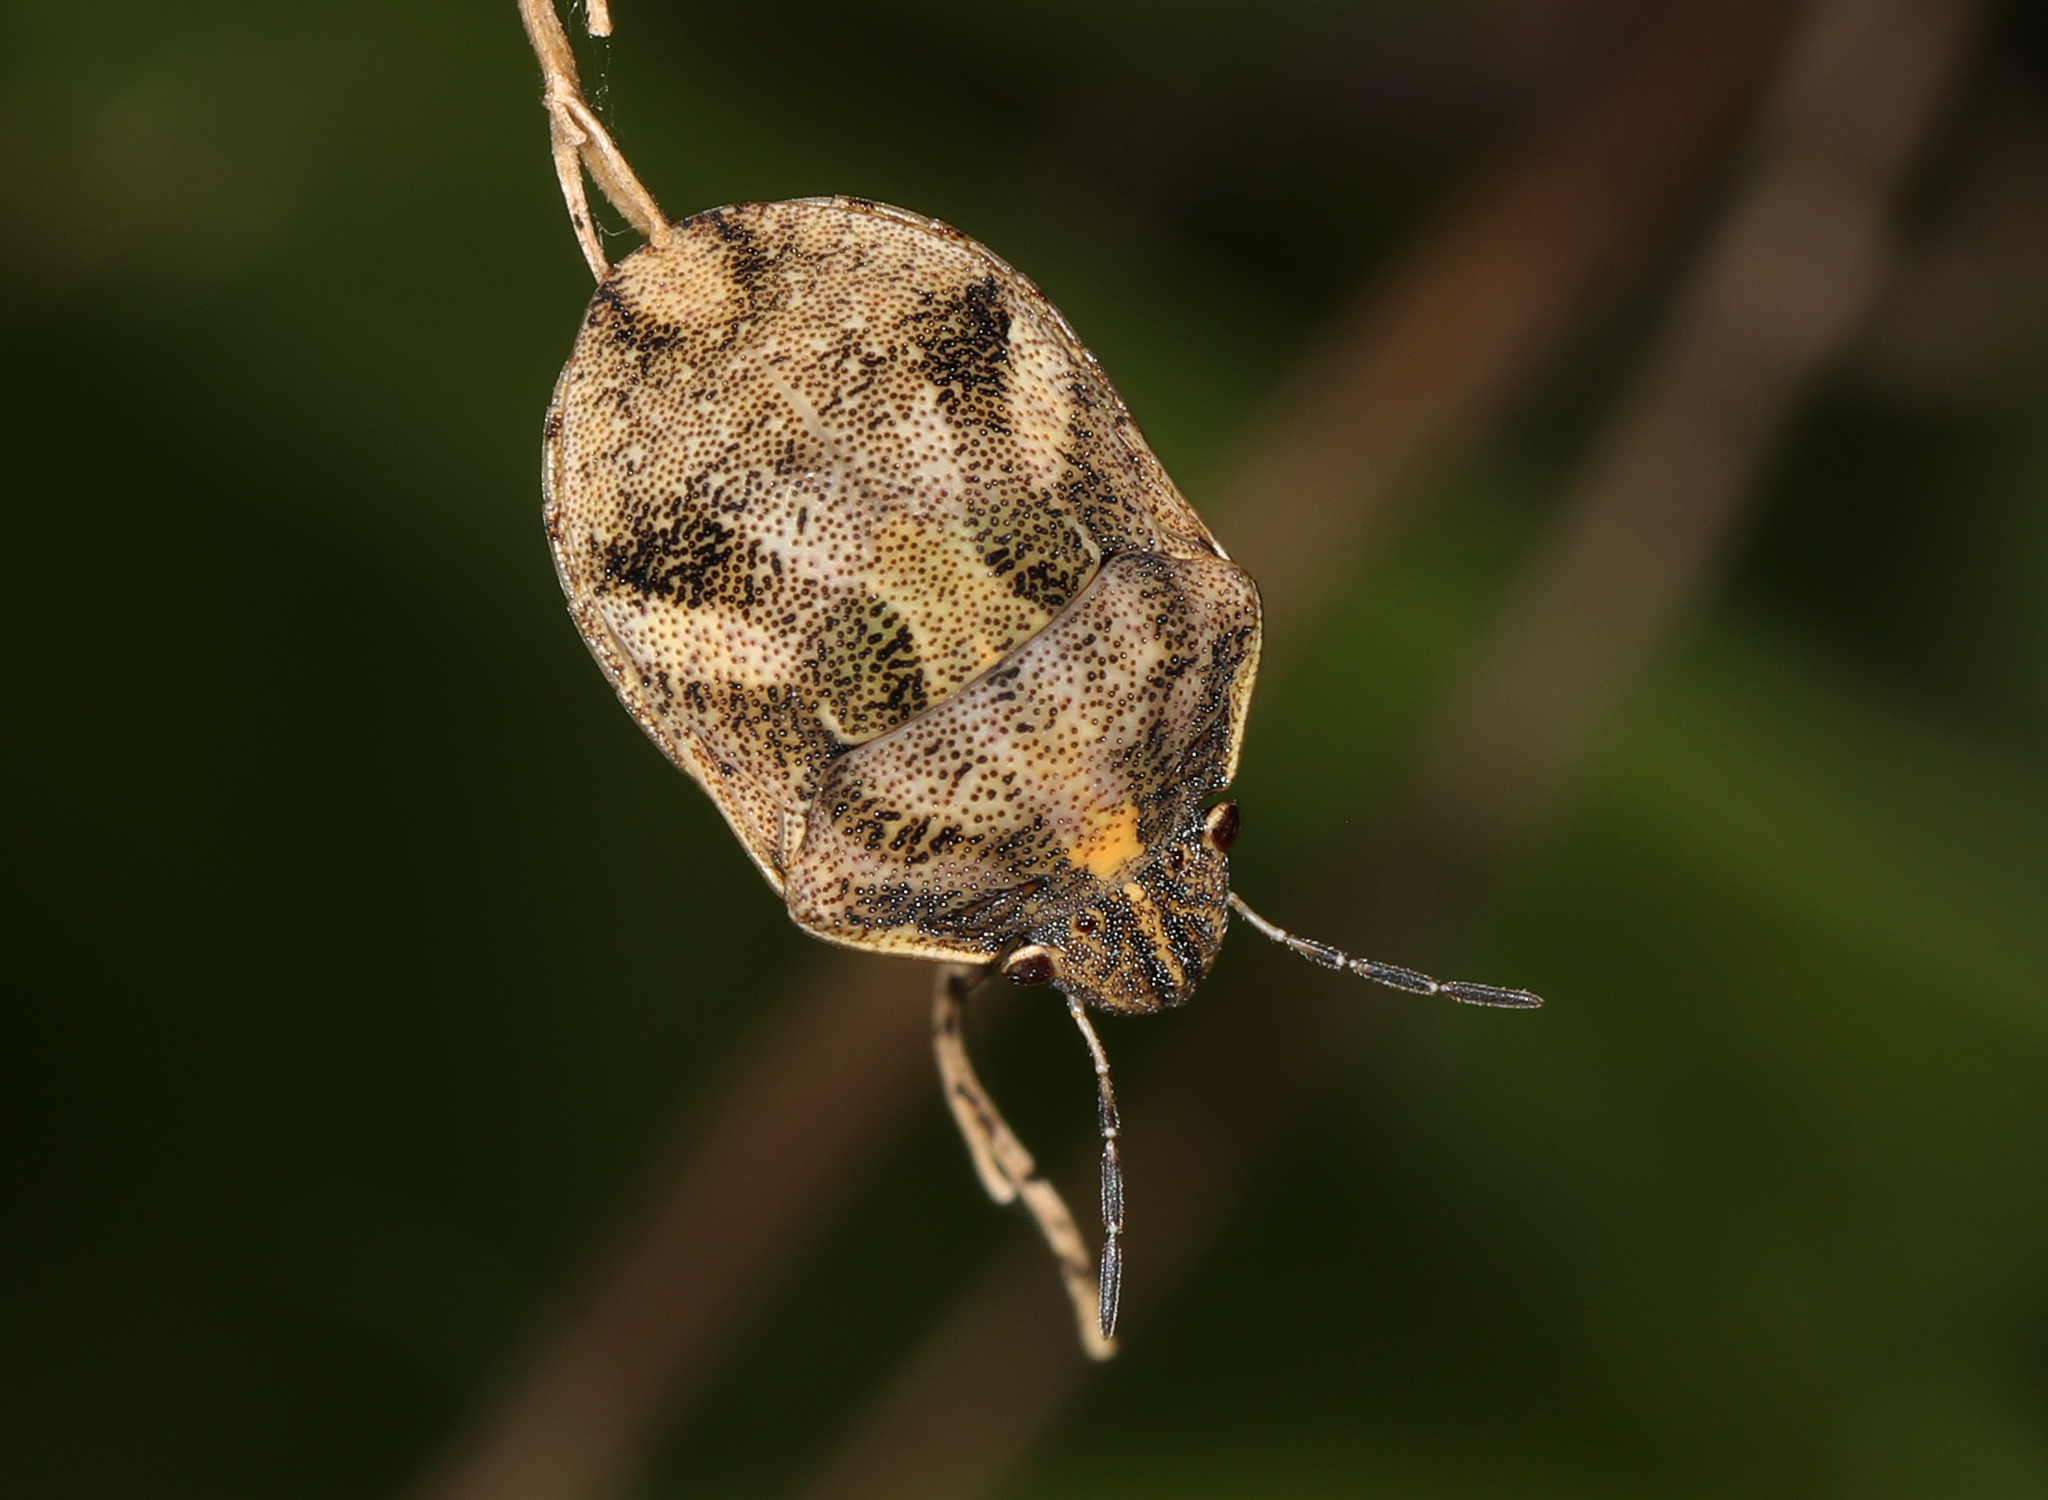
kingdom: Animalia
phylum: Arthropoda
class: Insecta
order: Hemiptera
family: Scutelleridae
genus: Sphyrocoris
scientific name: Sphyrocoris obliquus
